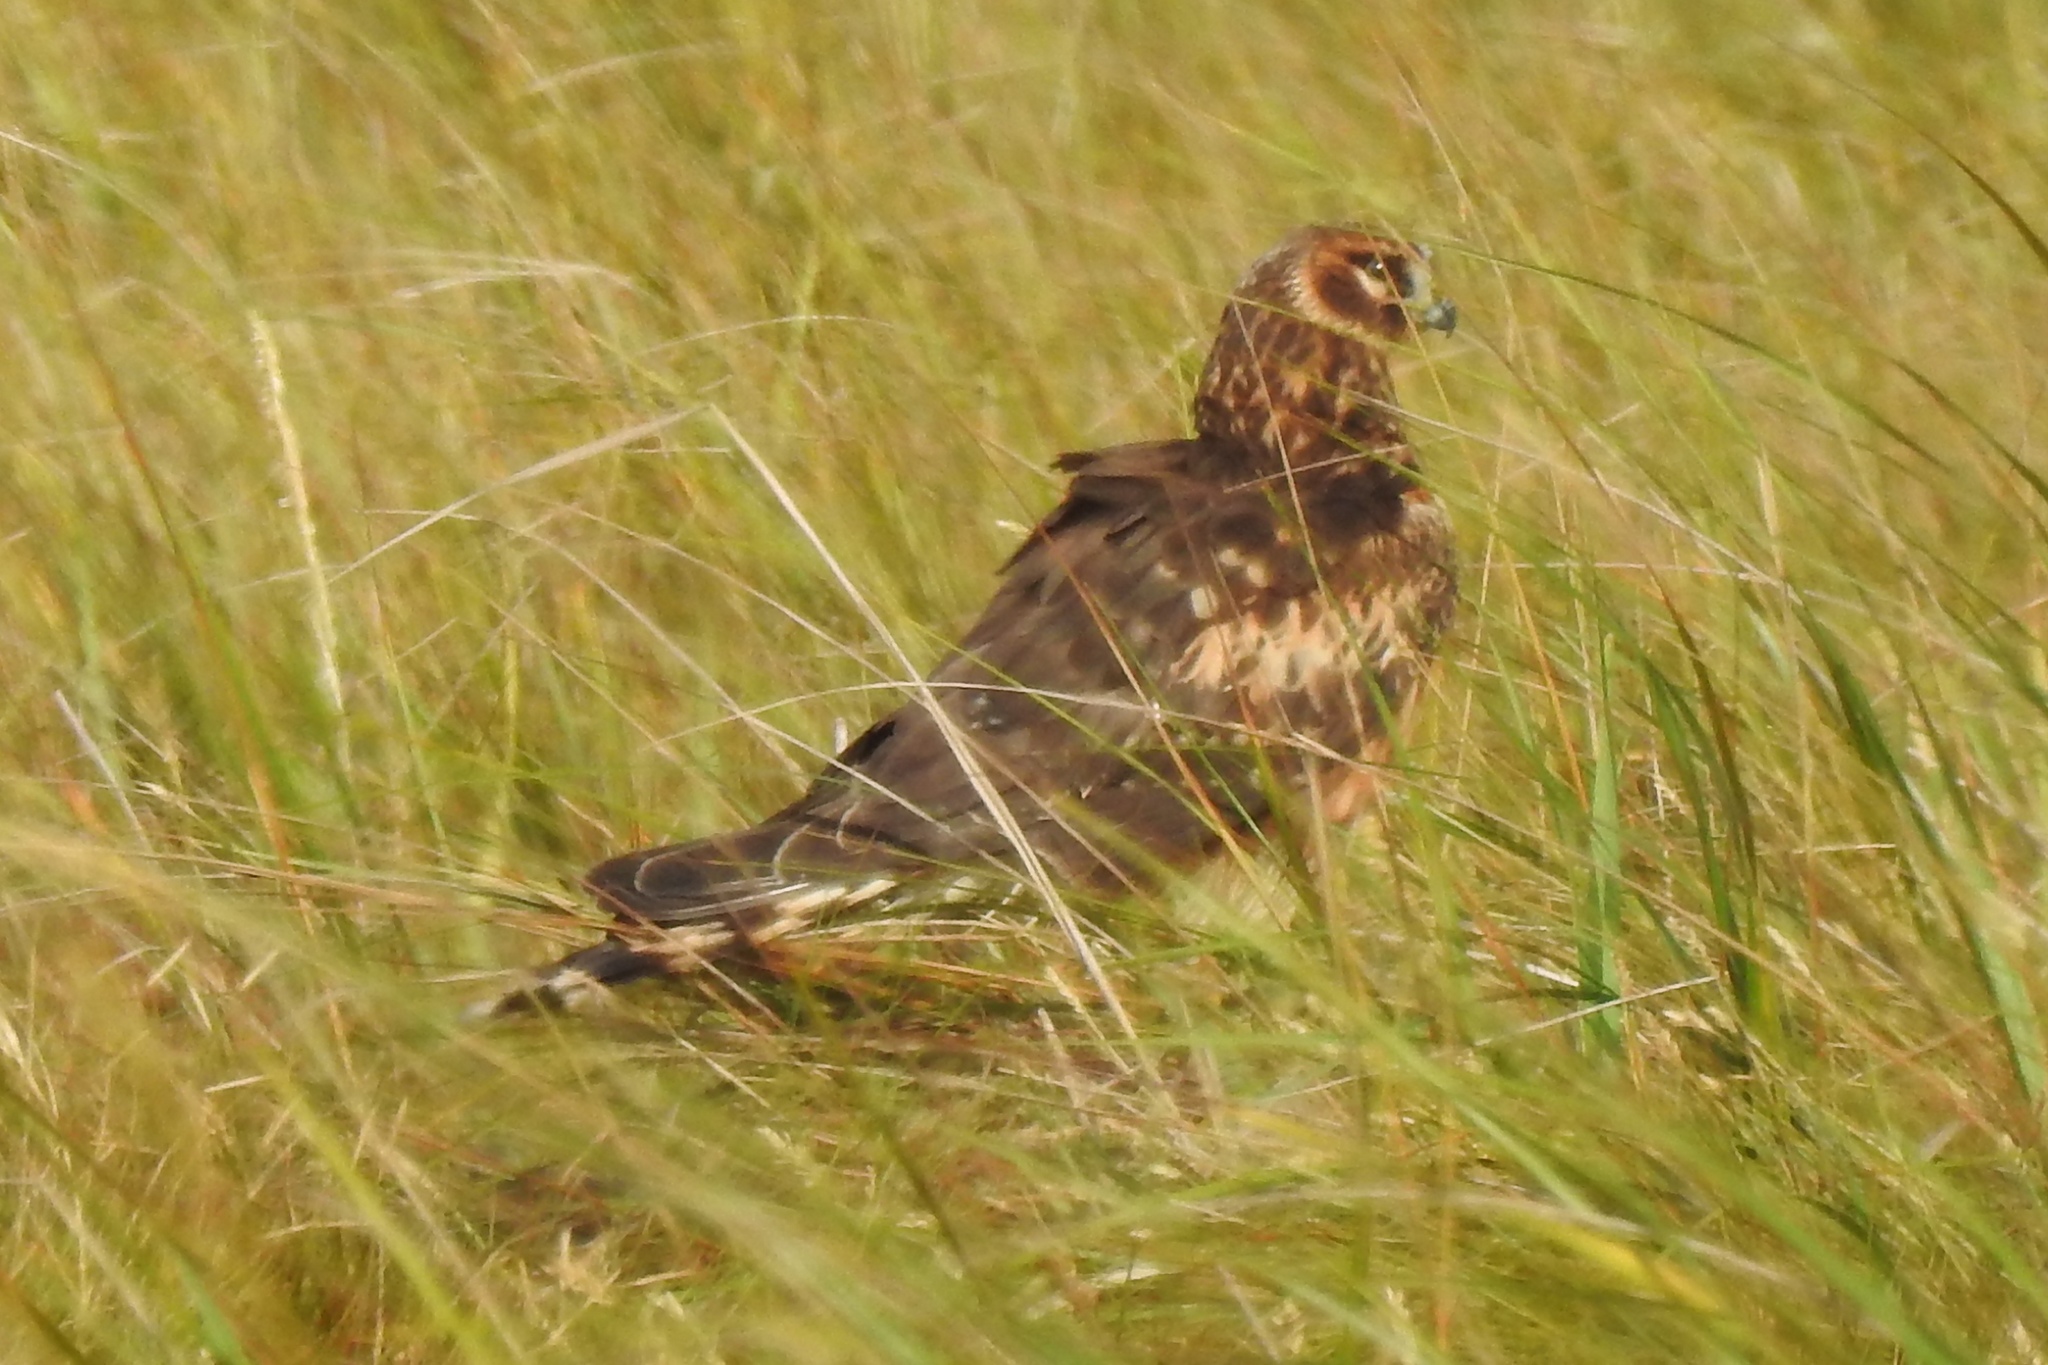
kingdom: Animalia
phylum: Chordata
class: Aves
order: Accipitriformes
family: Accipitridae
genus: Circus
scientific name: Circus cyaneus
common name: Hen harrier
